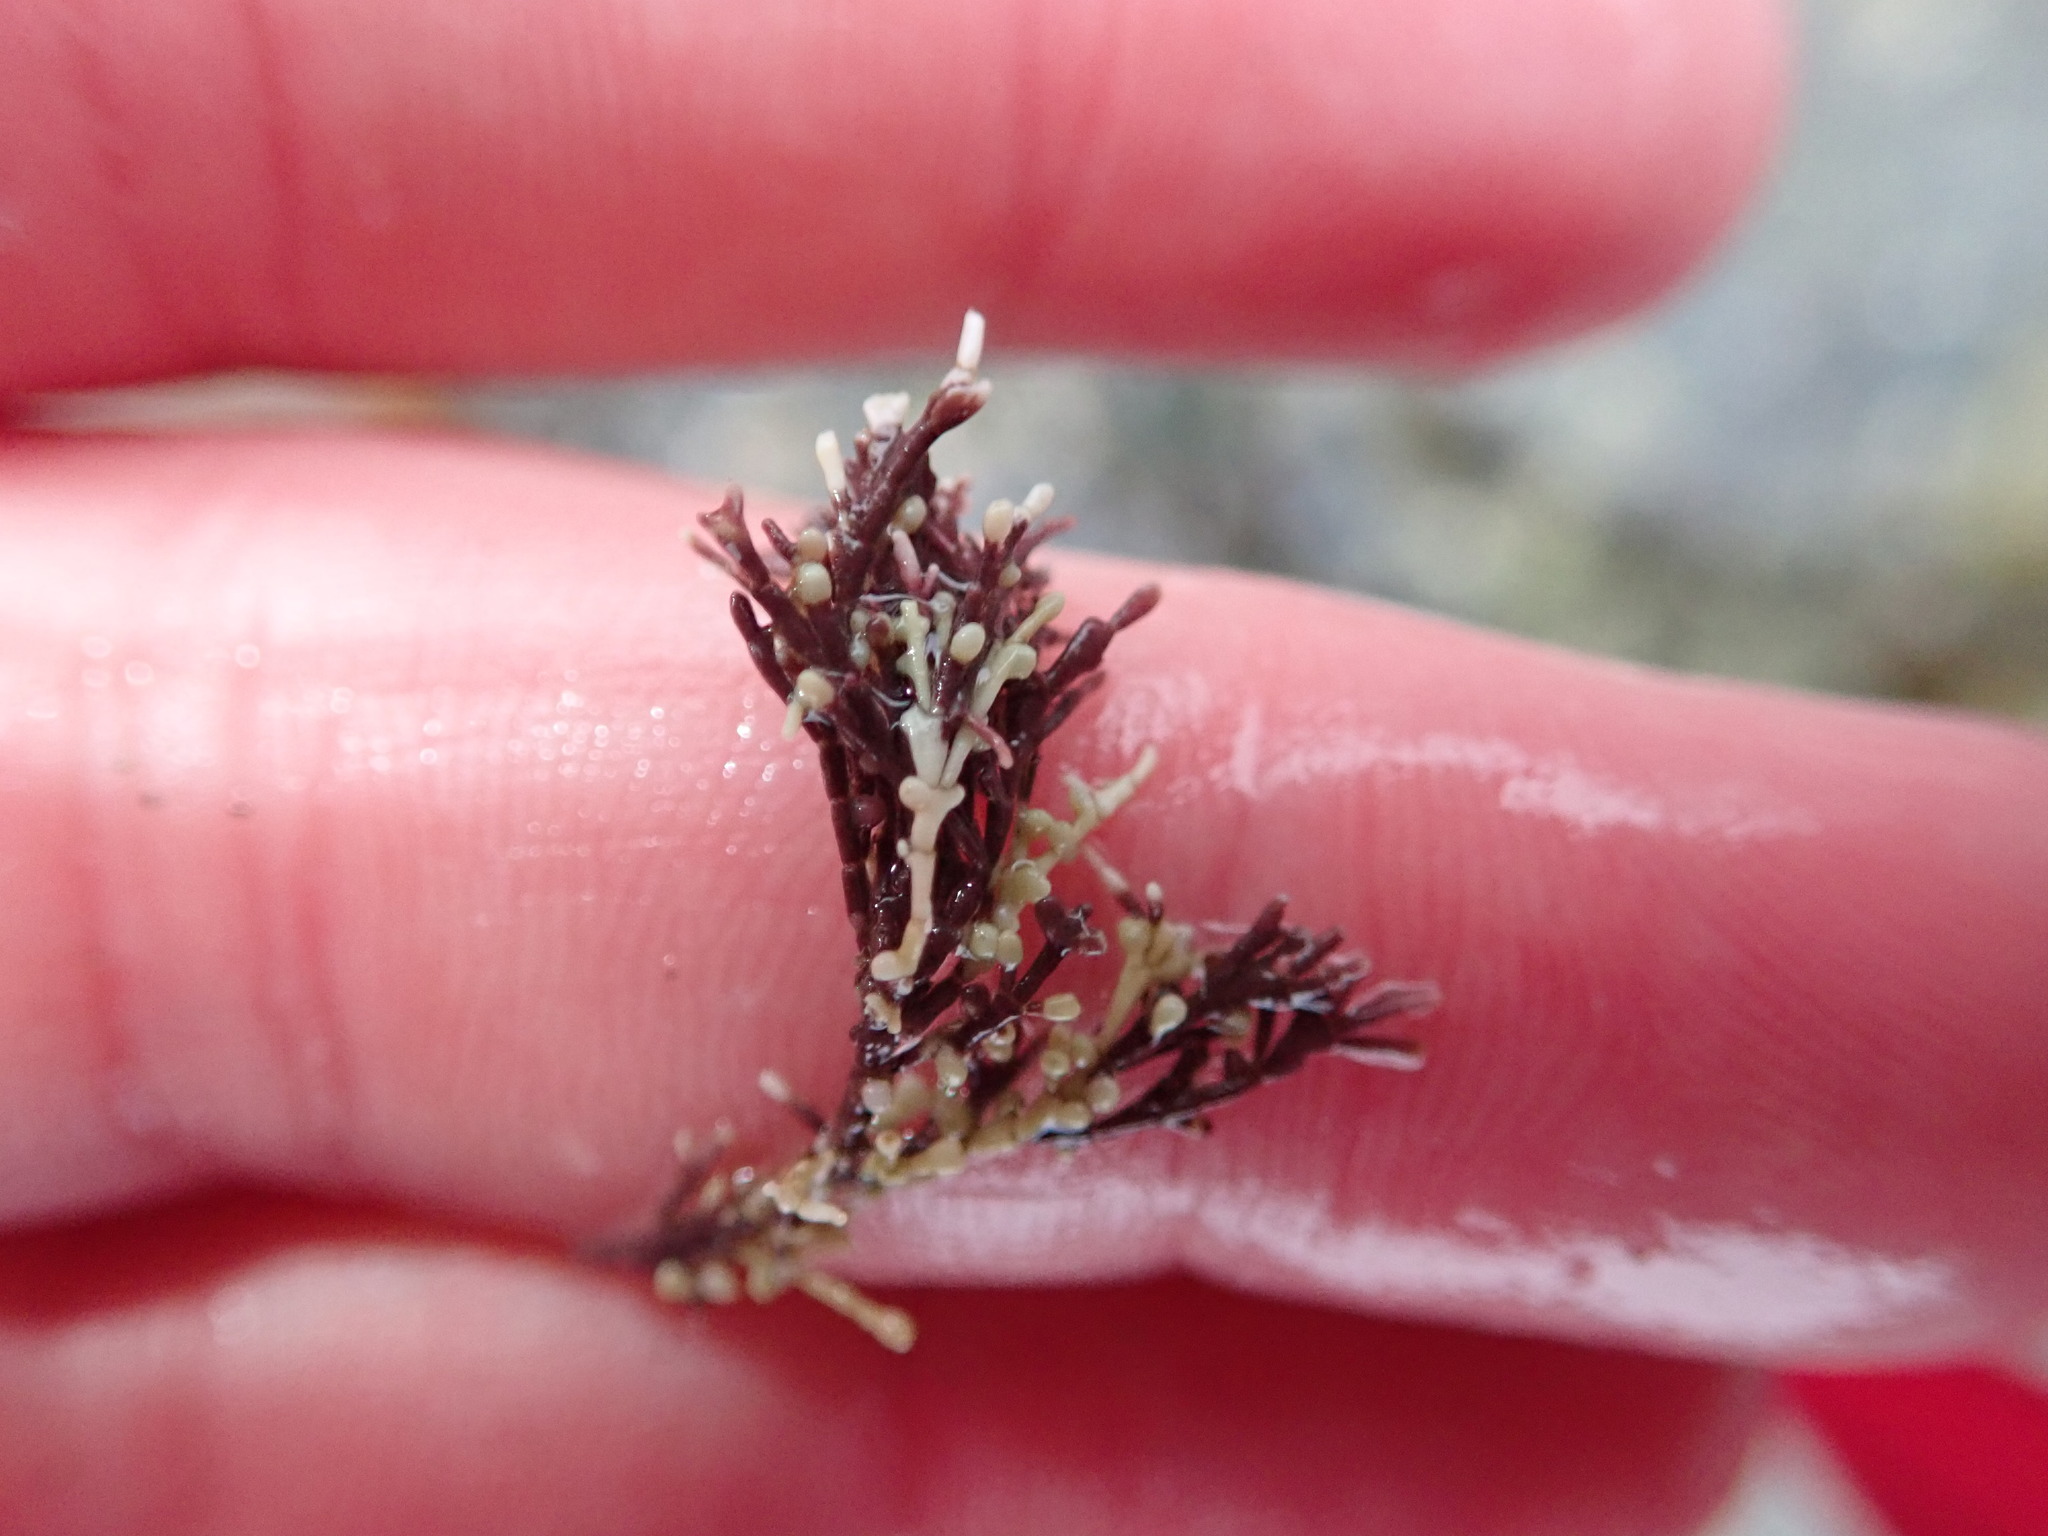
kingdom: Plantae
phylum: Rhodophyta
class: Florideophyceae
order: Corallinales
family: Corallinaceae
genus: Corallina
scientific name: Corallina officinalis
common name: Coral weed
